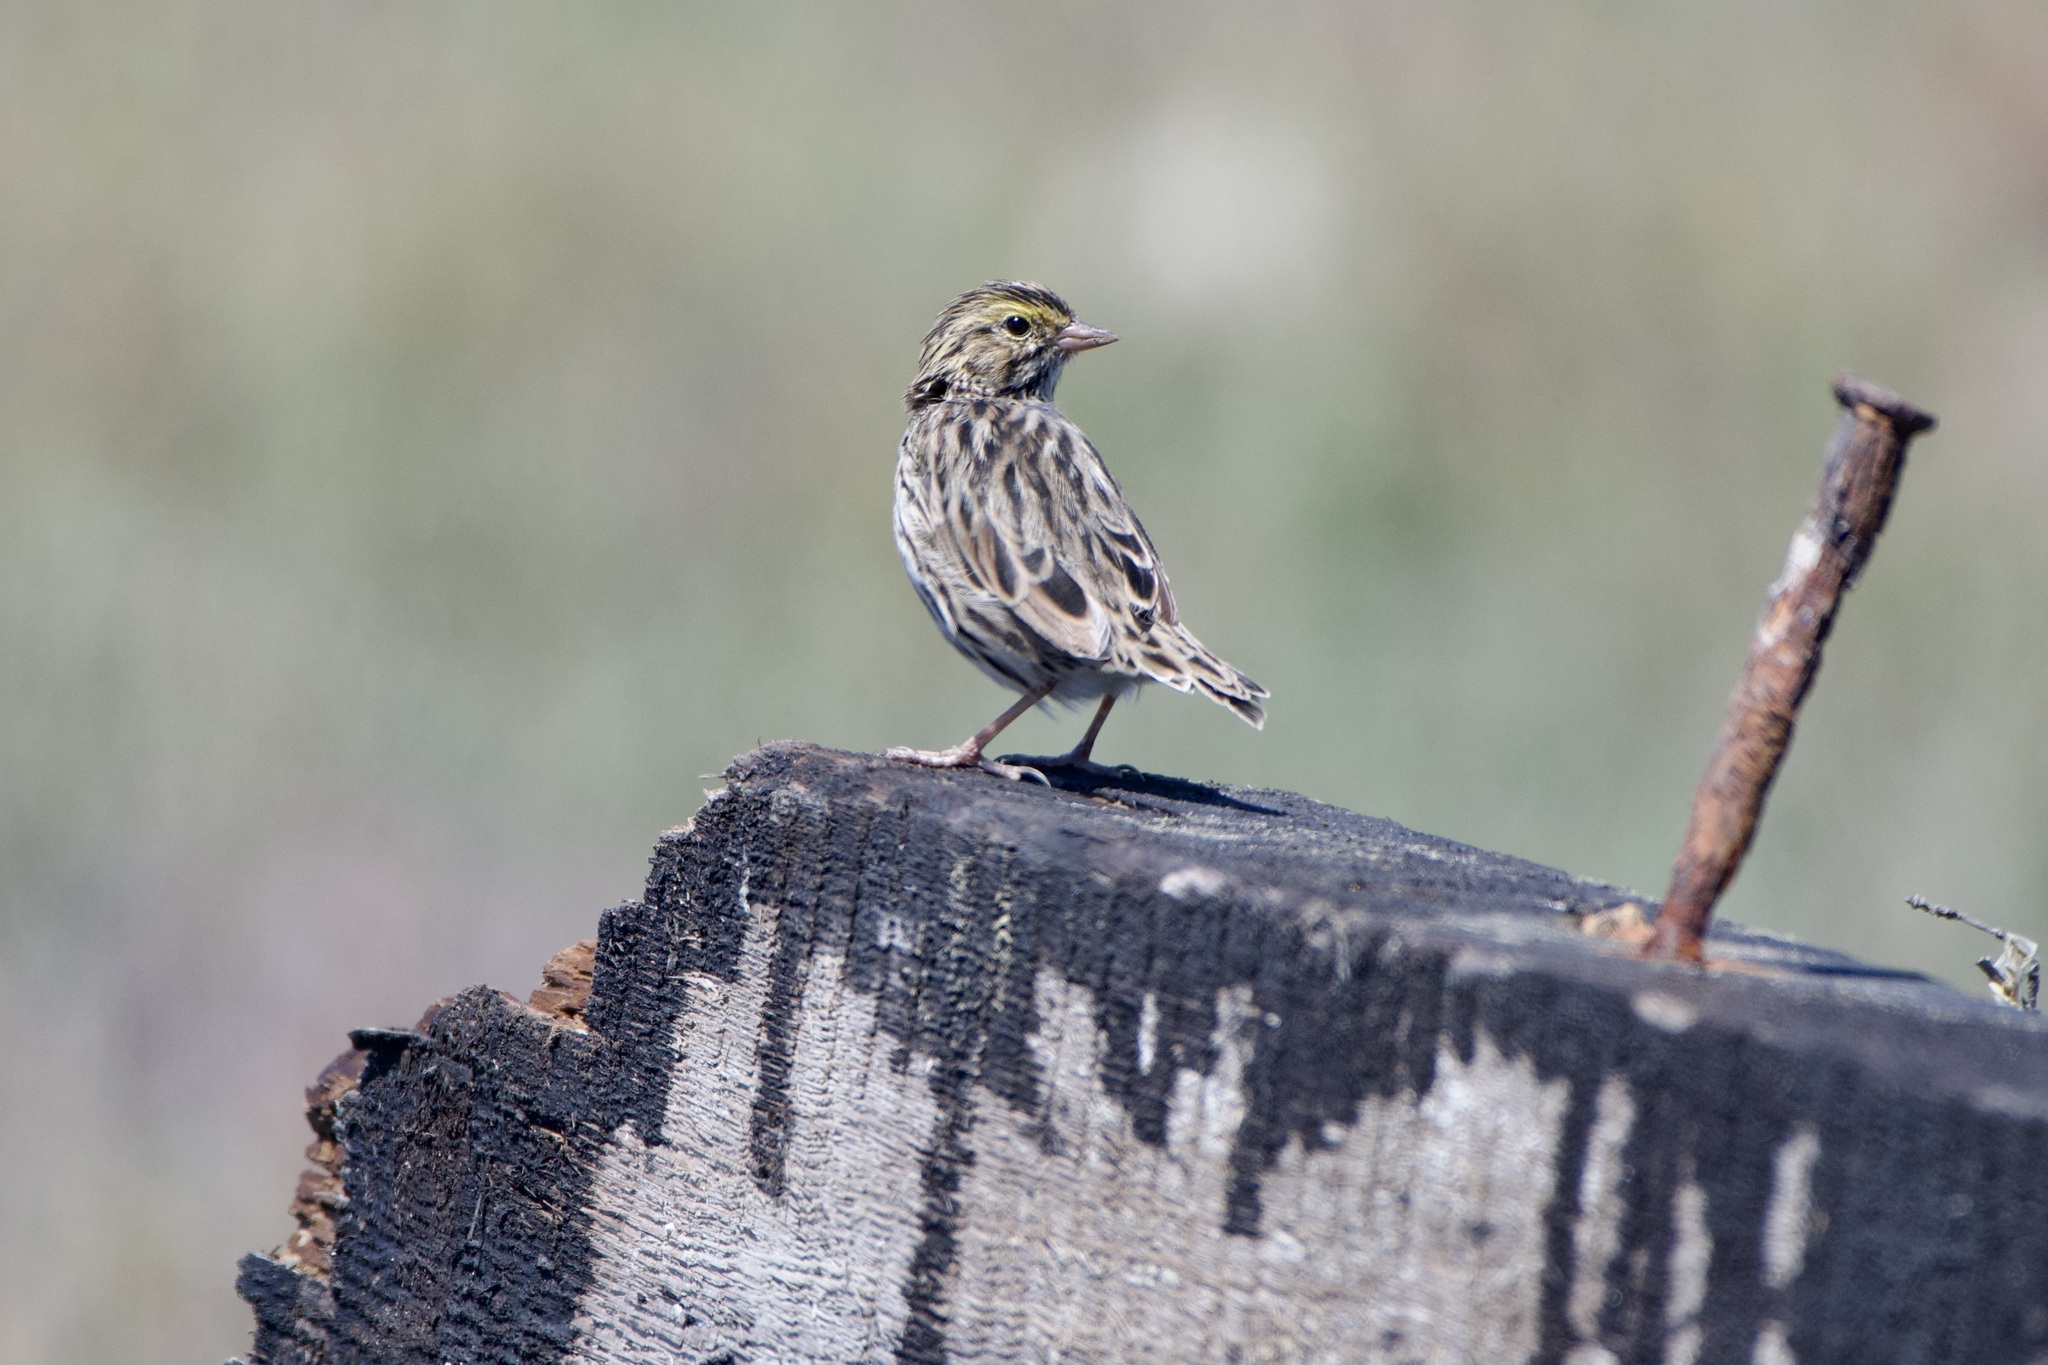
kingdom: Animalia
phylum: Chordata
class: Aves
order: Passeriformes
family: Passerellidae
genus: Passerculus
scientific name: Passerculus sandwichensis
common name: Savannah sparrow
